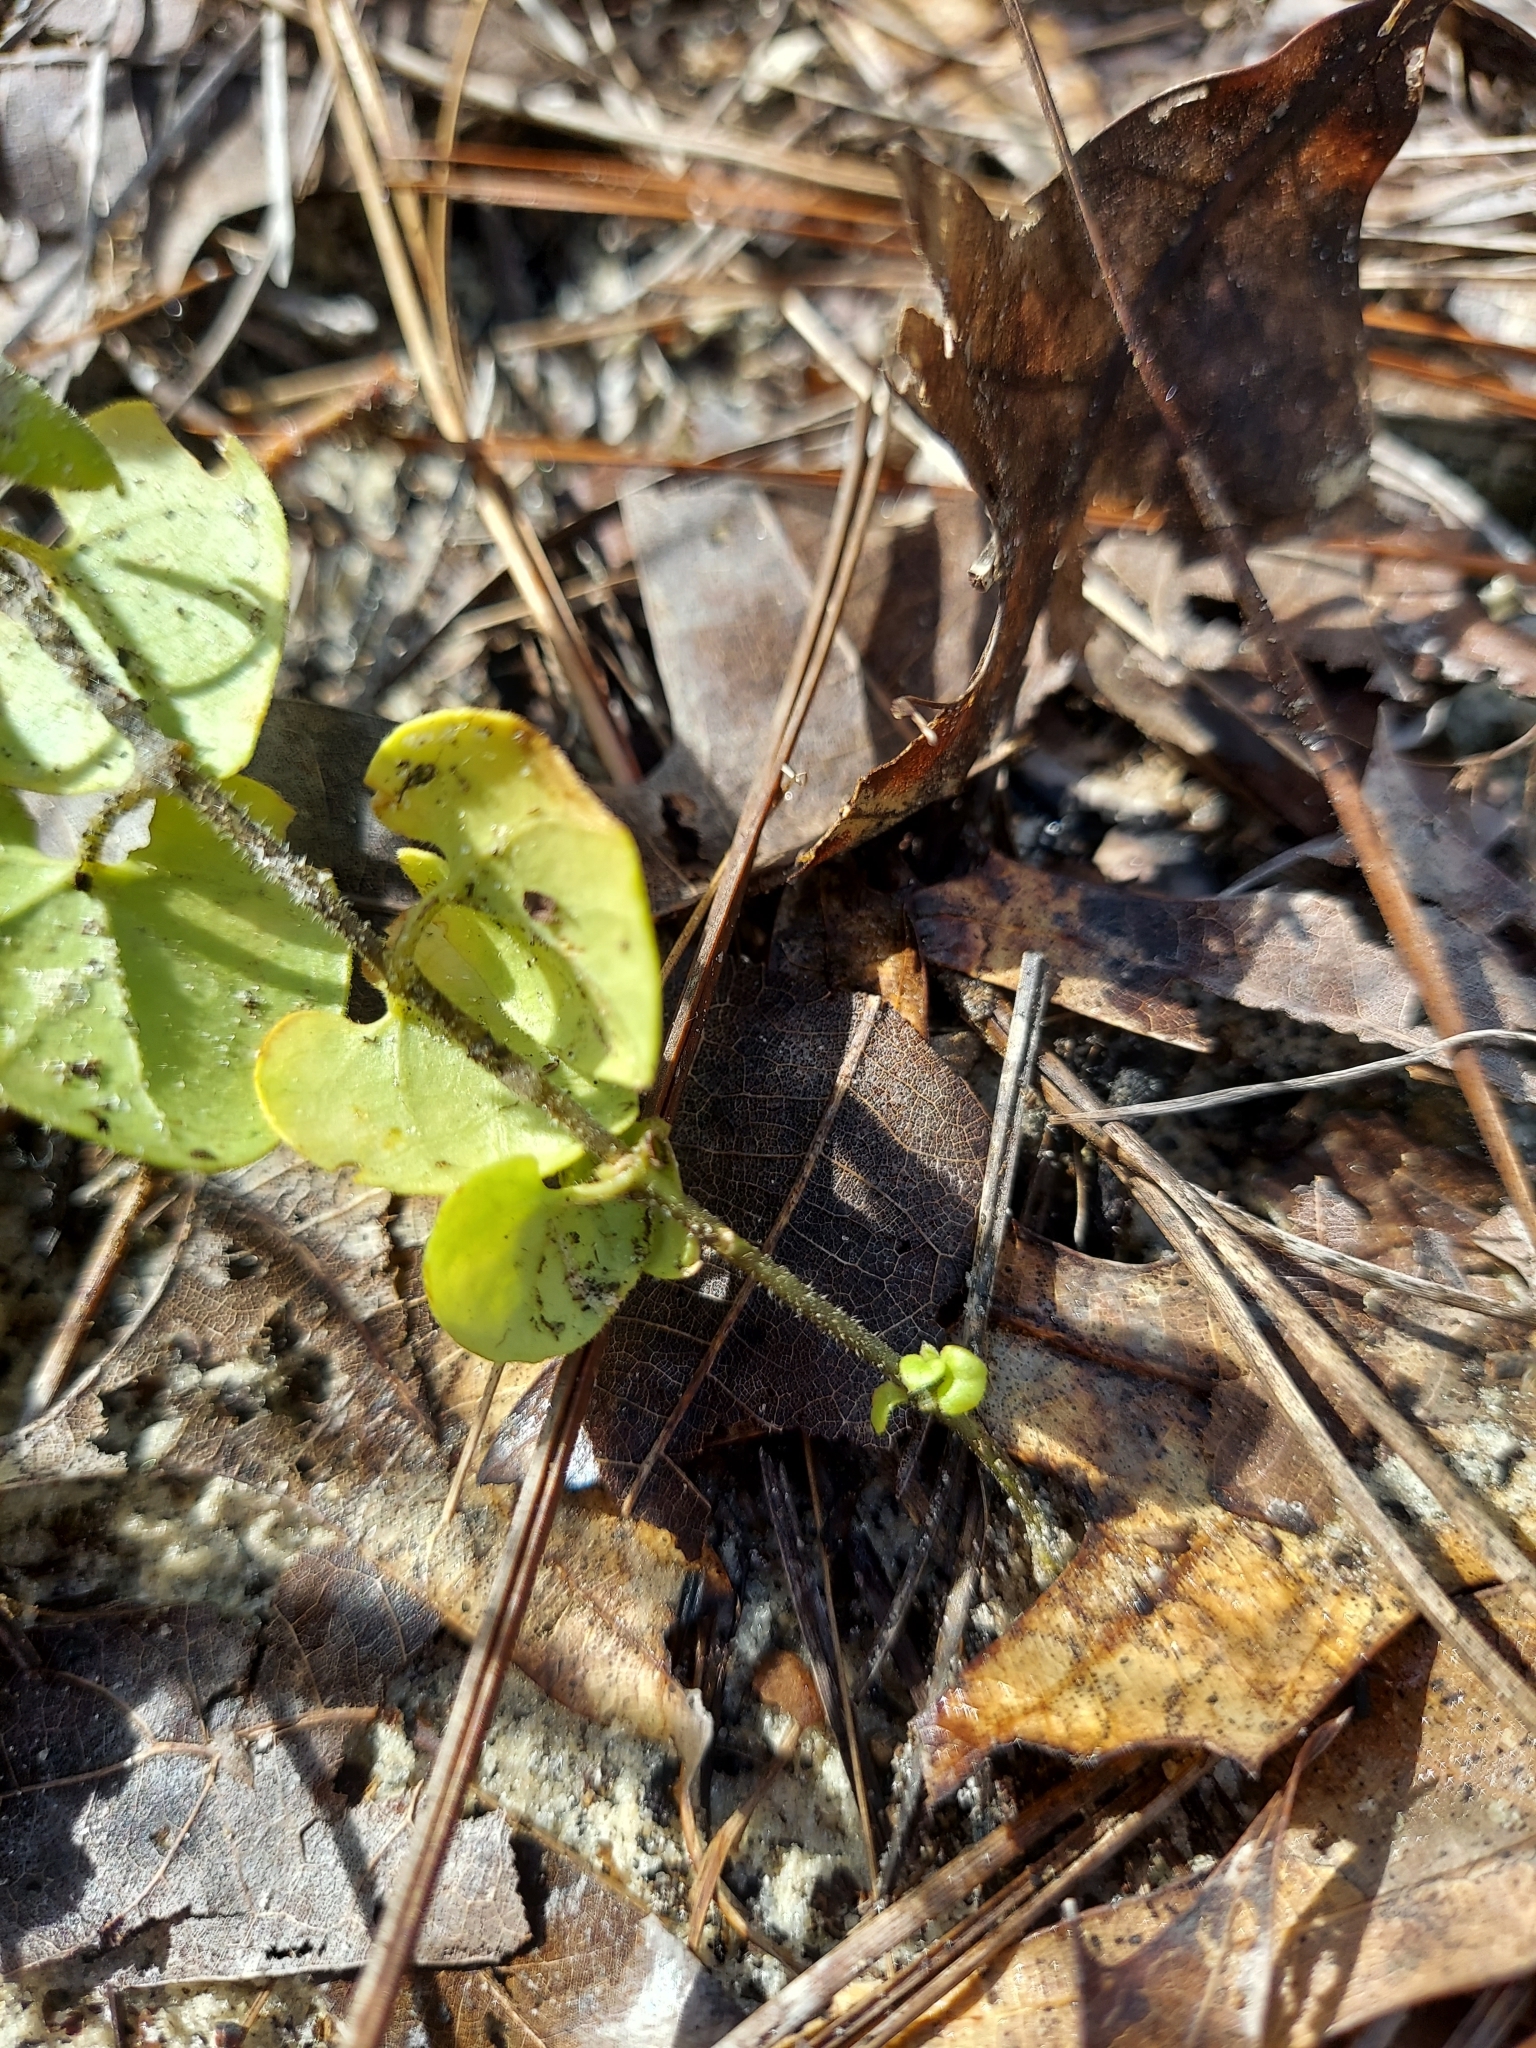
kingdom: Plantae
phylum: Tracheophyta
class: Magnoliopsida
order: Gentianales
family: Apocynaceae
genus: Chthamalia
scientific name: Chthamalia pubiflora
